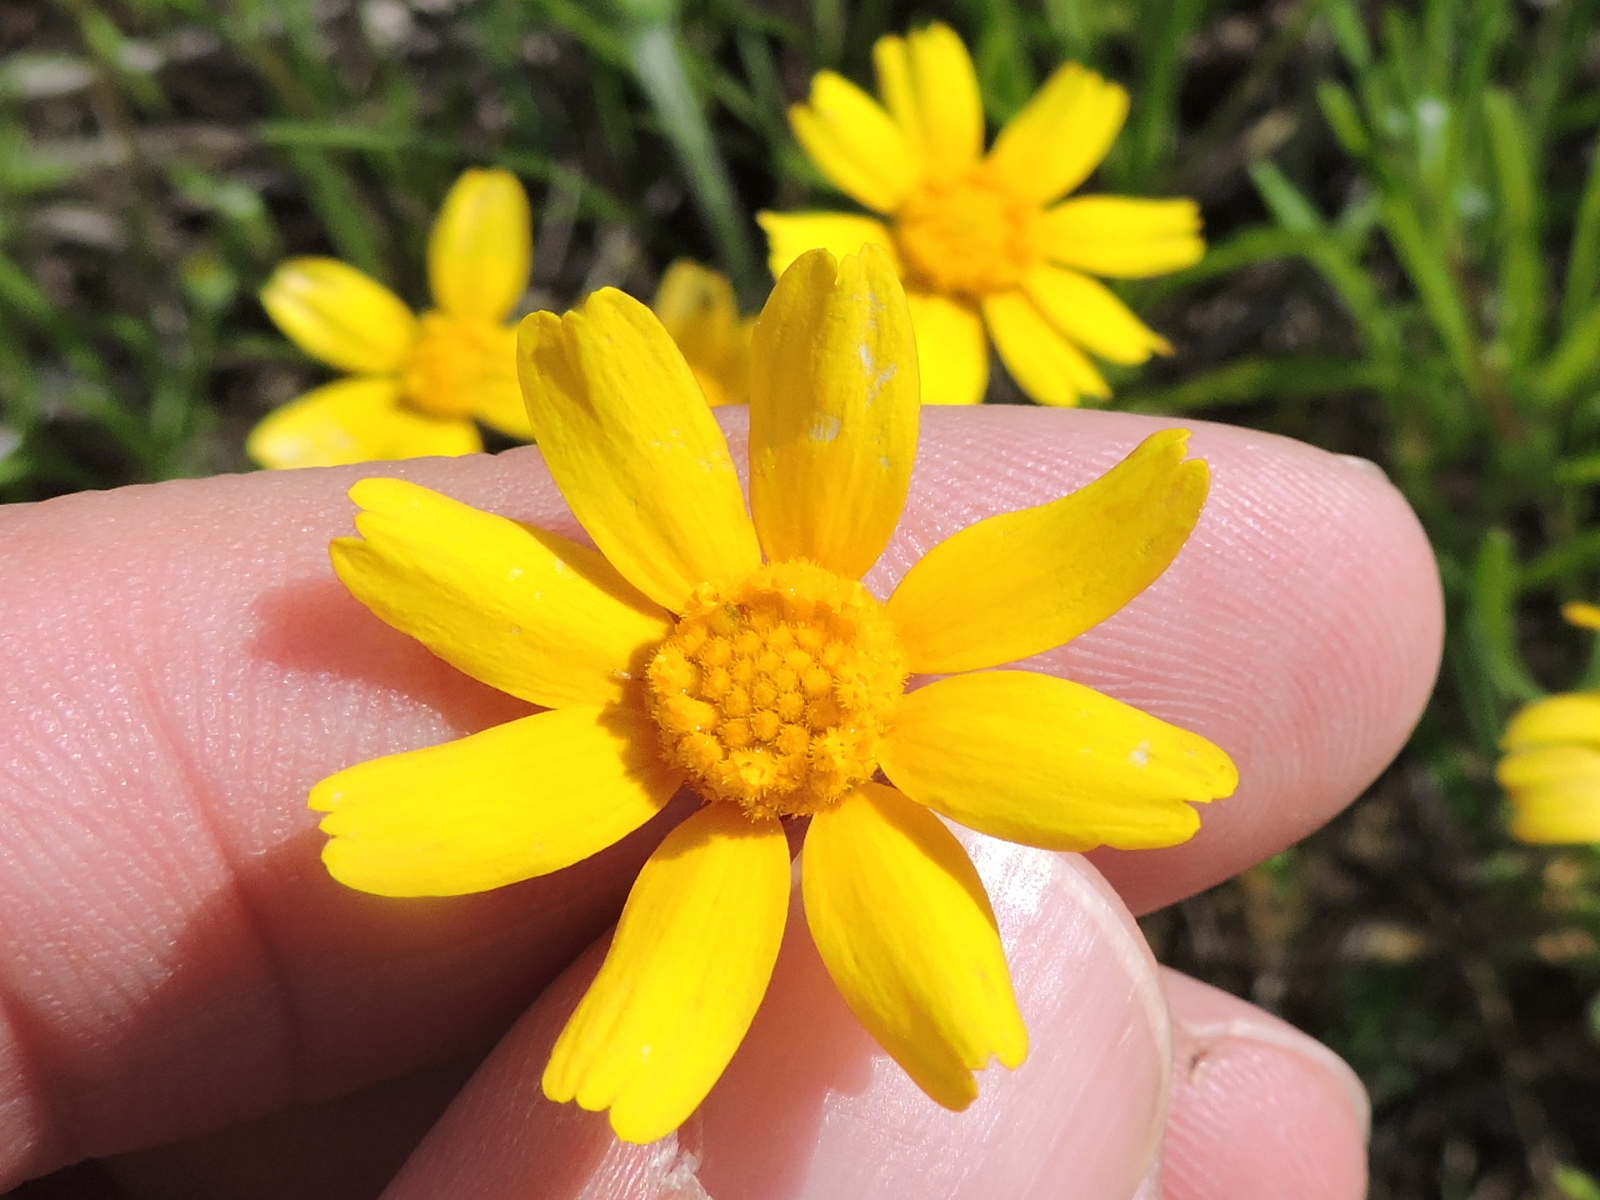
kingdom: Plantae
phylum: Tracheophyta
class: Magnoliopsida
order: Asterales
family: Asteraceae
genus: Tetraneuris
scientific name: Tetraneuris linearifolia
